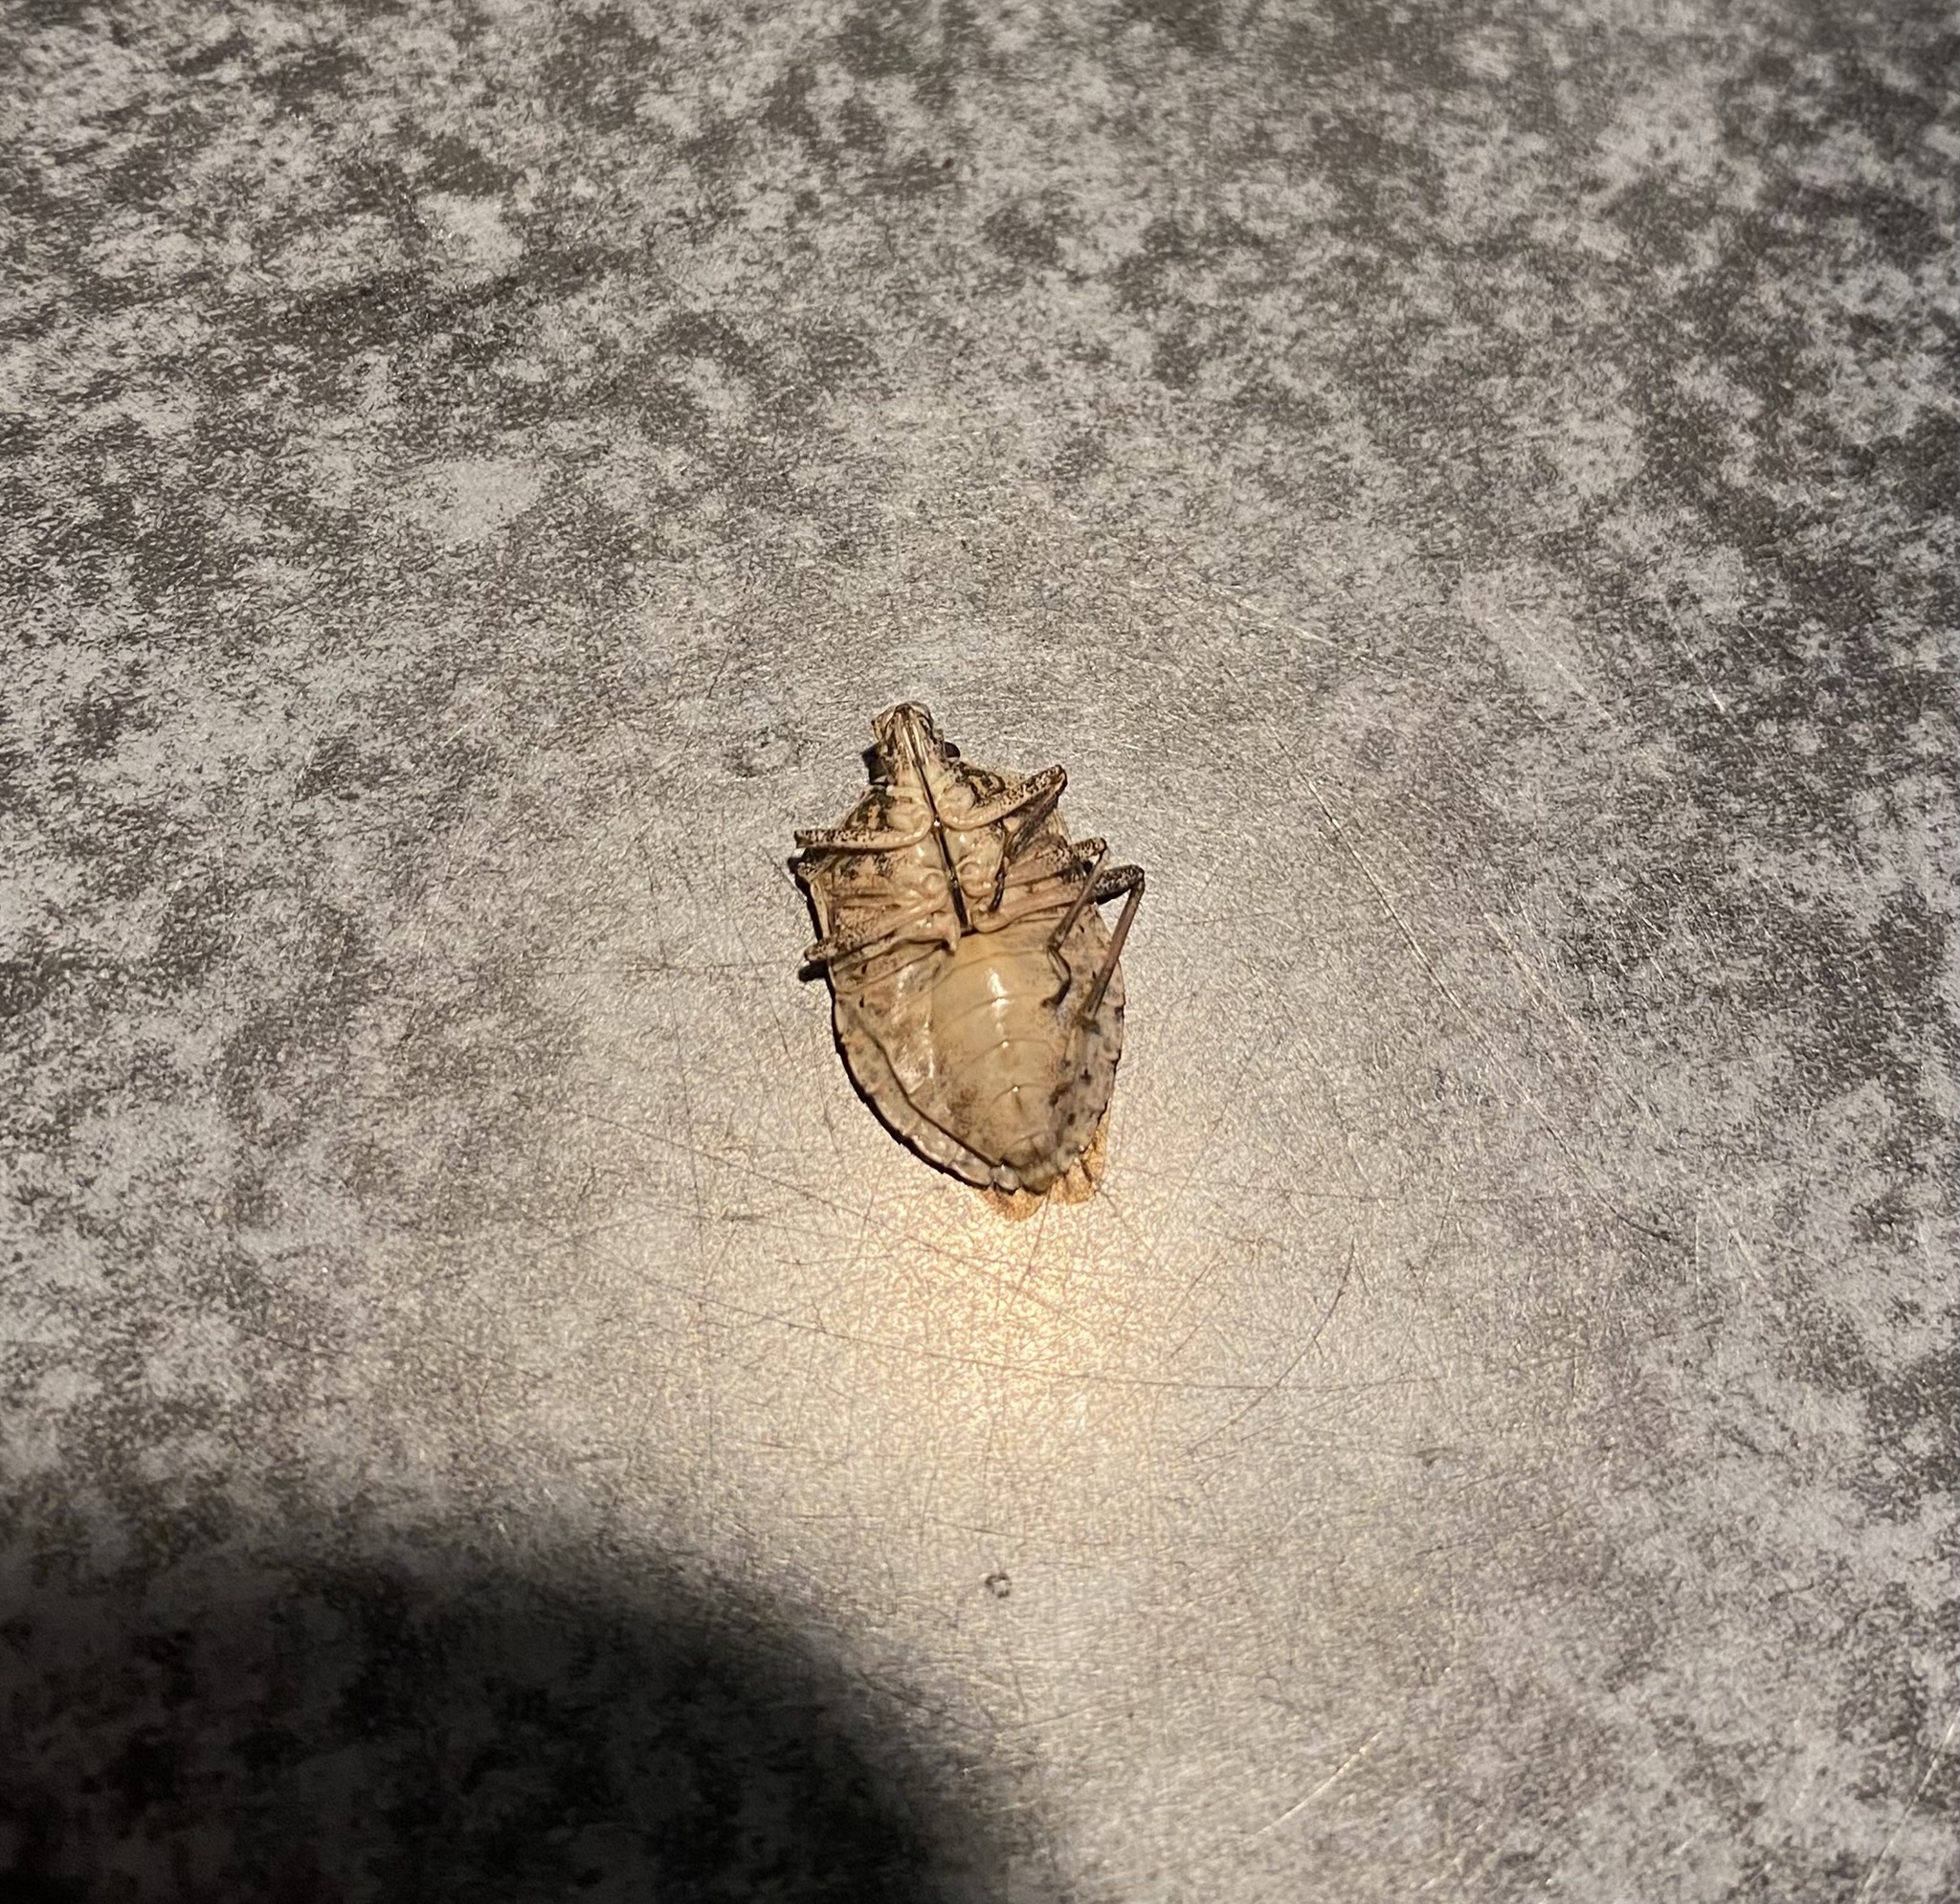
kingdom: Animalia
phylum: Arthropoda
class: Insecta
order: Hemiptera
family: Pentatomidae
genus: Halyomorpha
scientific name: Halyomorpha halys
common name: Brown marmorated stink bug
